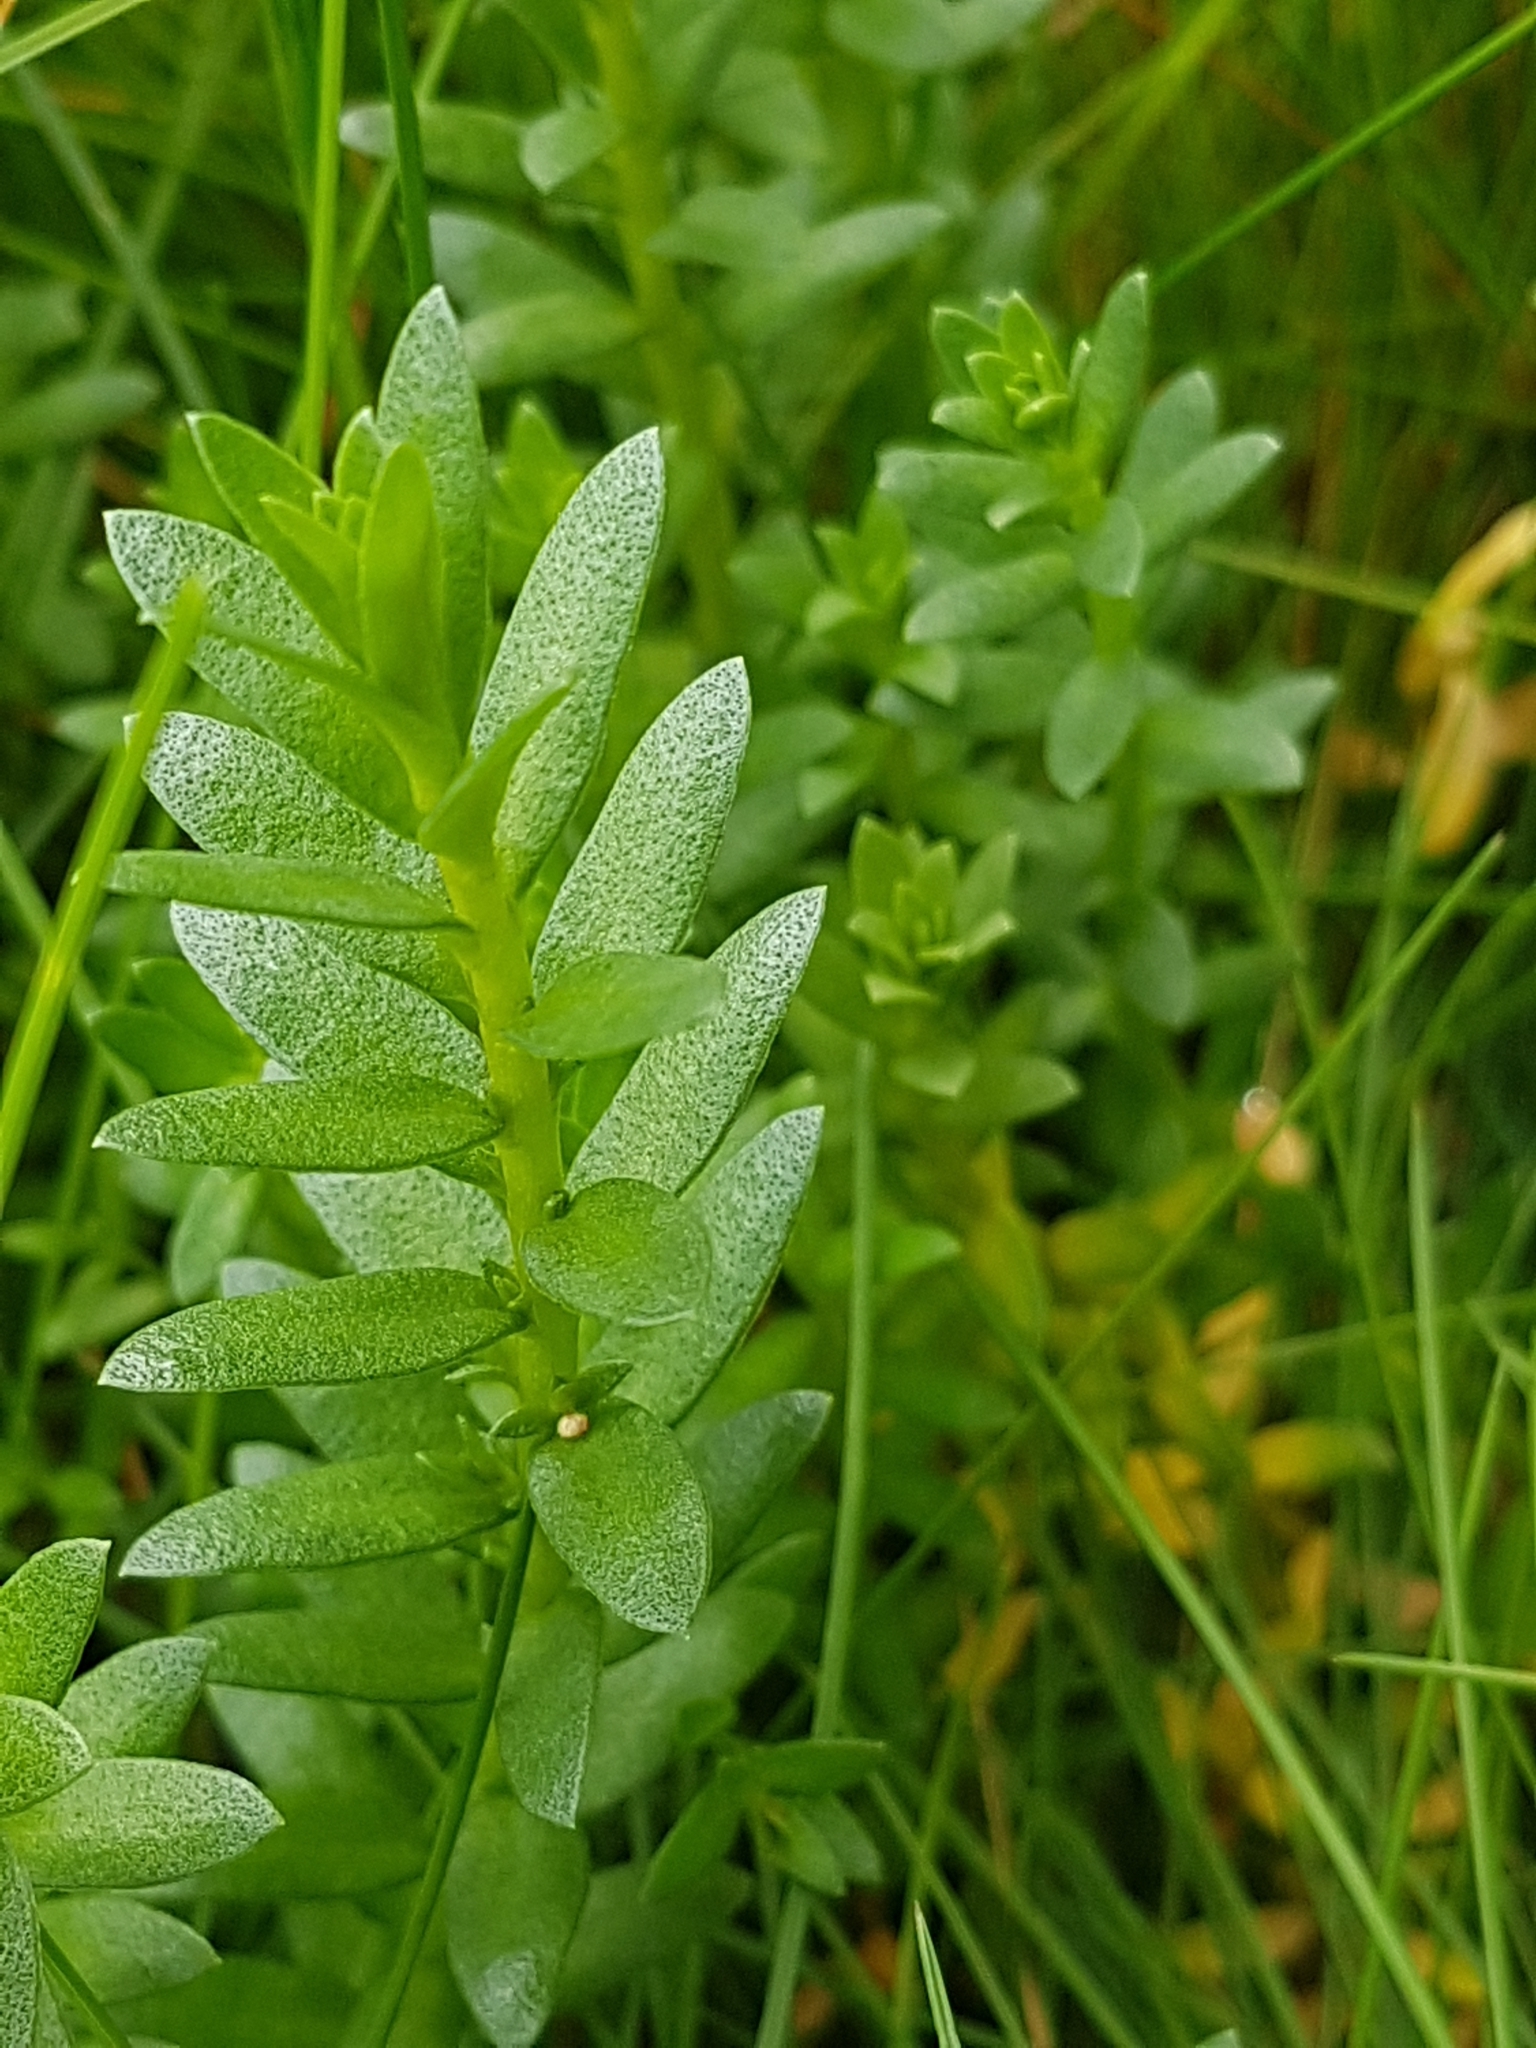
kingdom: Plantae
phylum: Tracheophyta
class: Magnoliopsida
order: Ericales
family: Primulaceae
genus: Lysimachia
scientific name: Lysimachia maritima
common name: Sea milkwort
